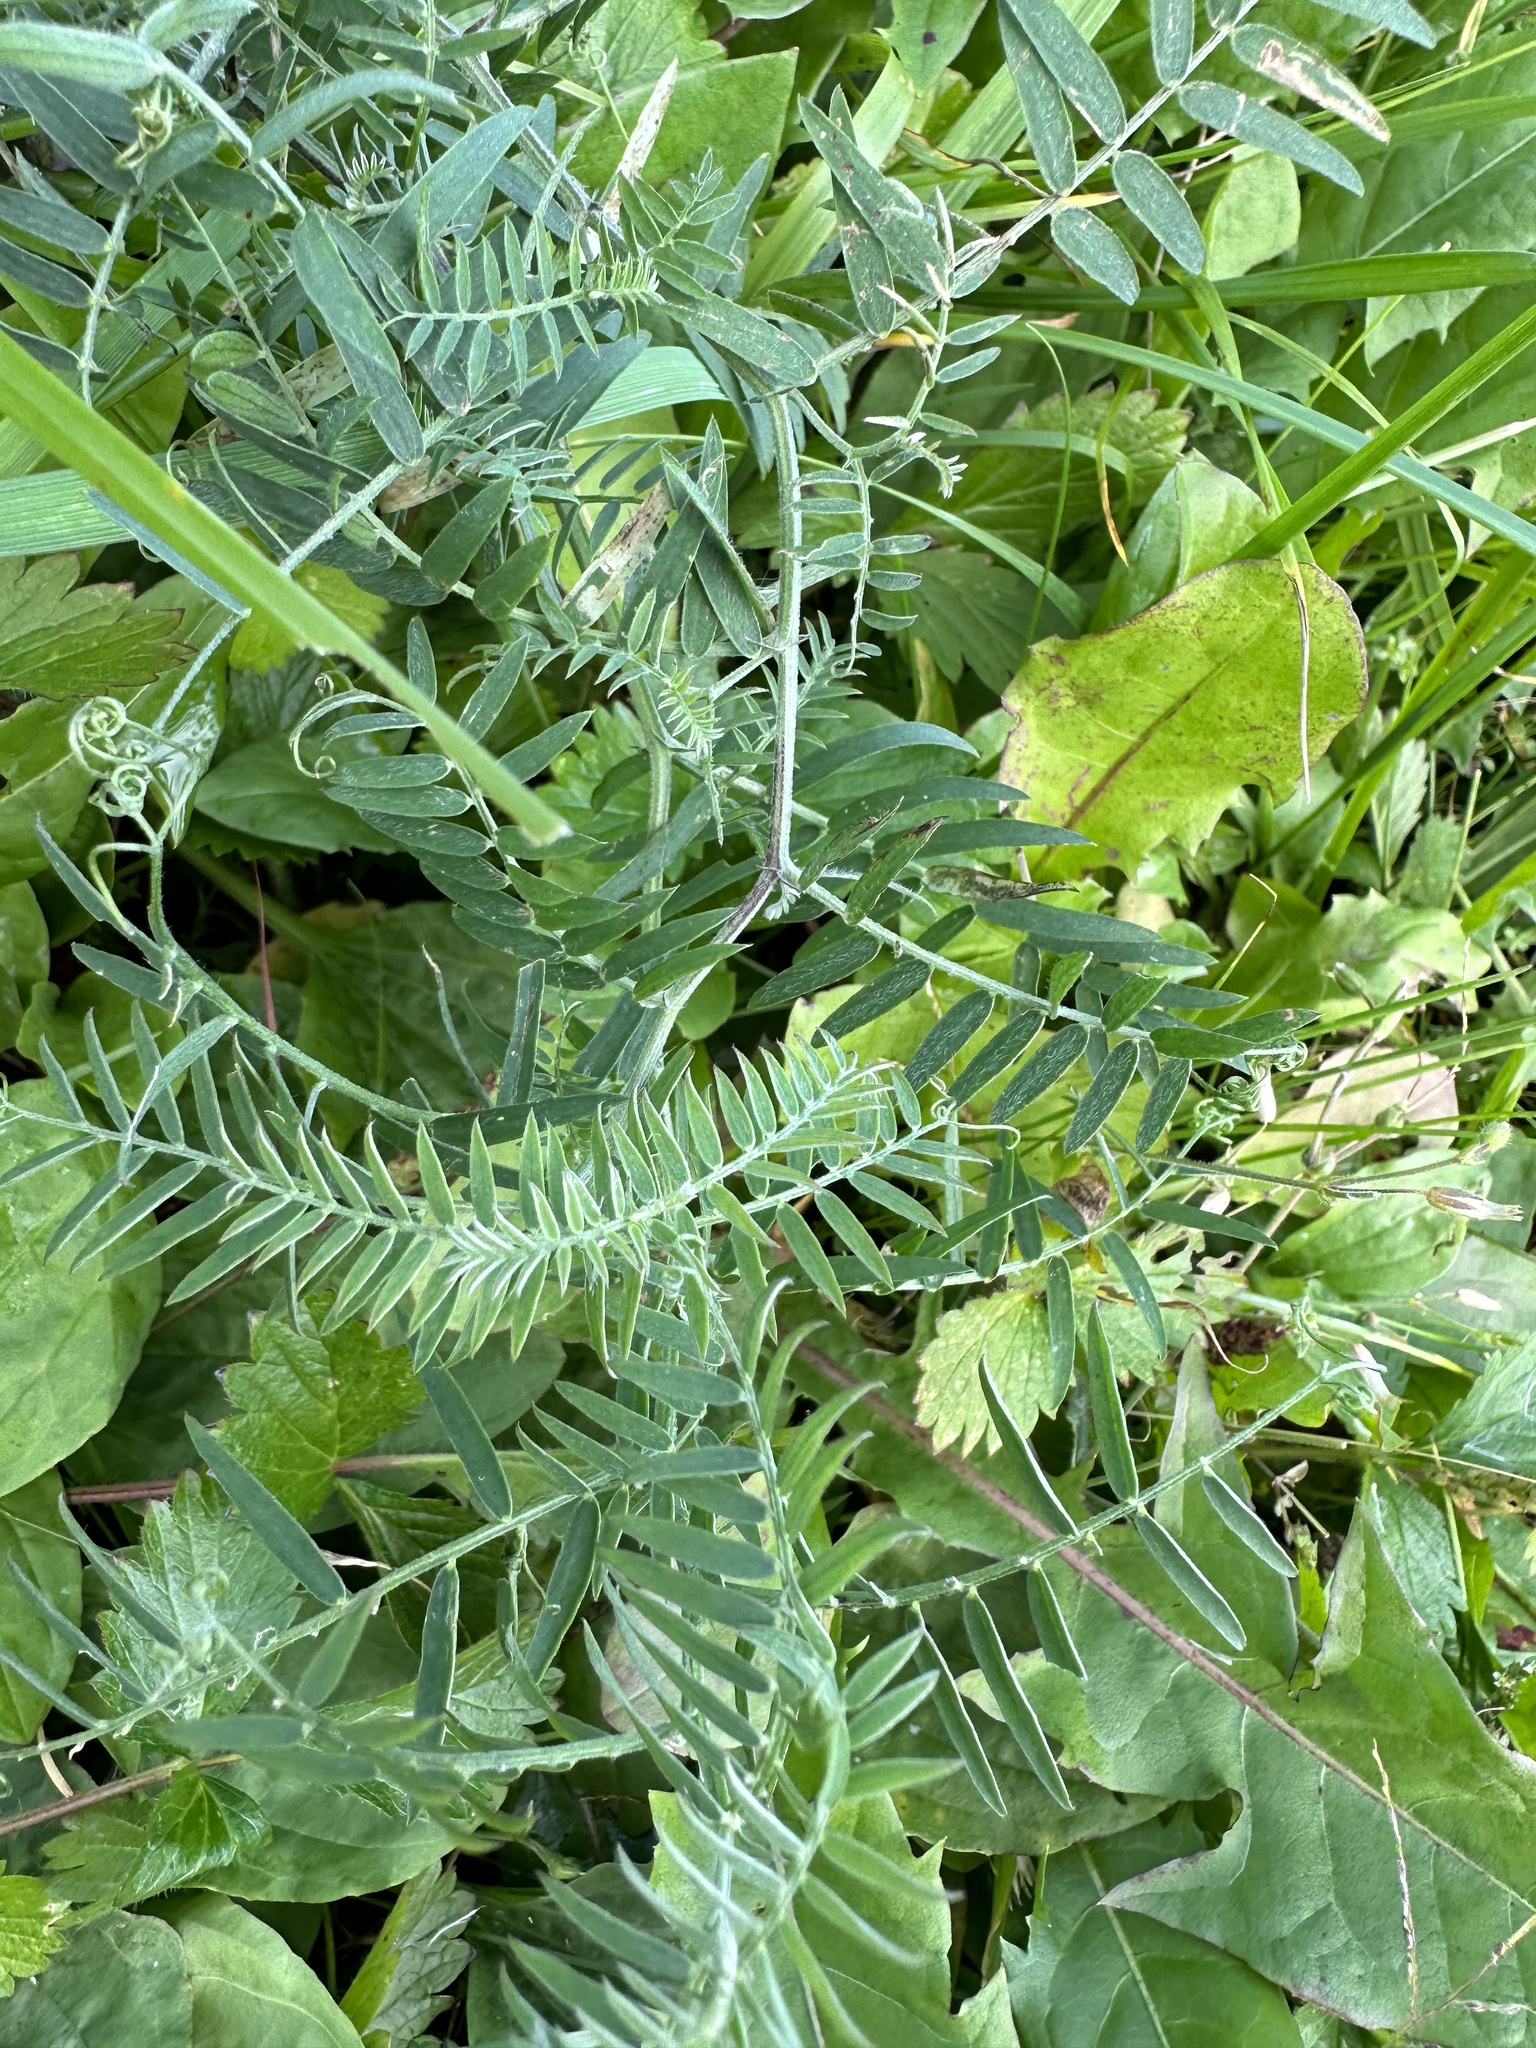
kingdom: Plantae
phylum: Tracheophyta
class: Magnoliopsida
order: Fabales
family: Fabaceae
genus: Vicia
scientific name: Vicia cracca
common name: Bird vetch
